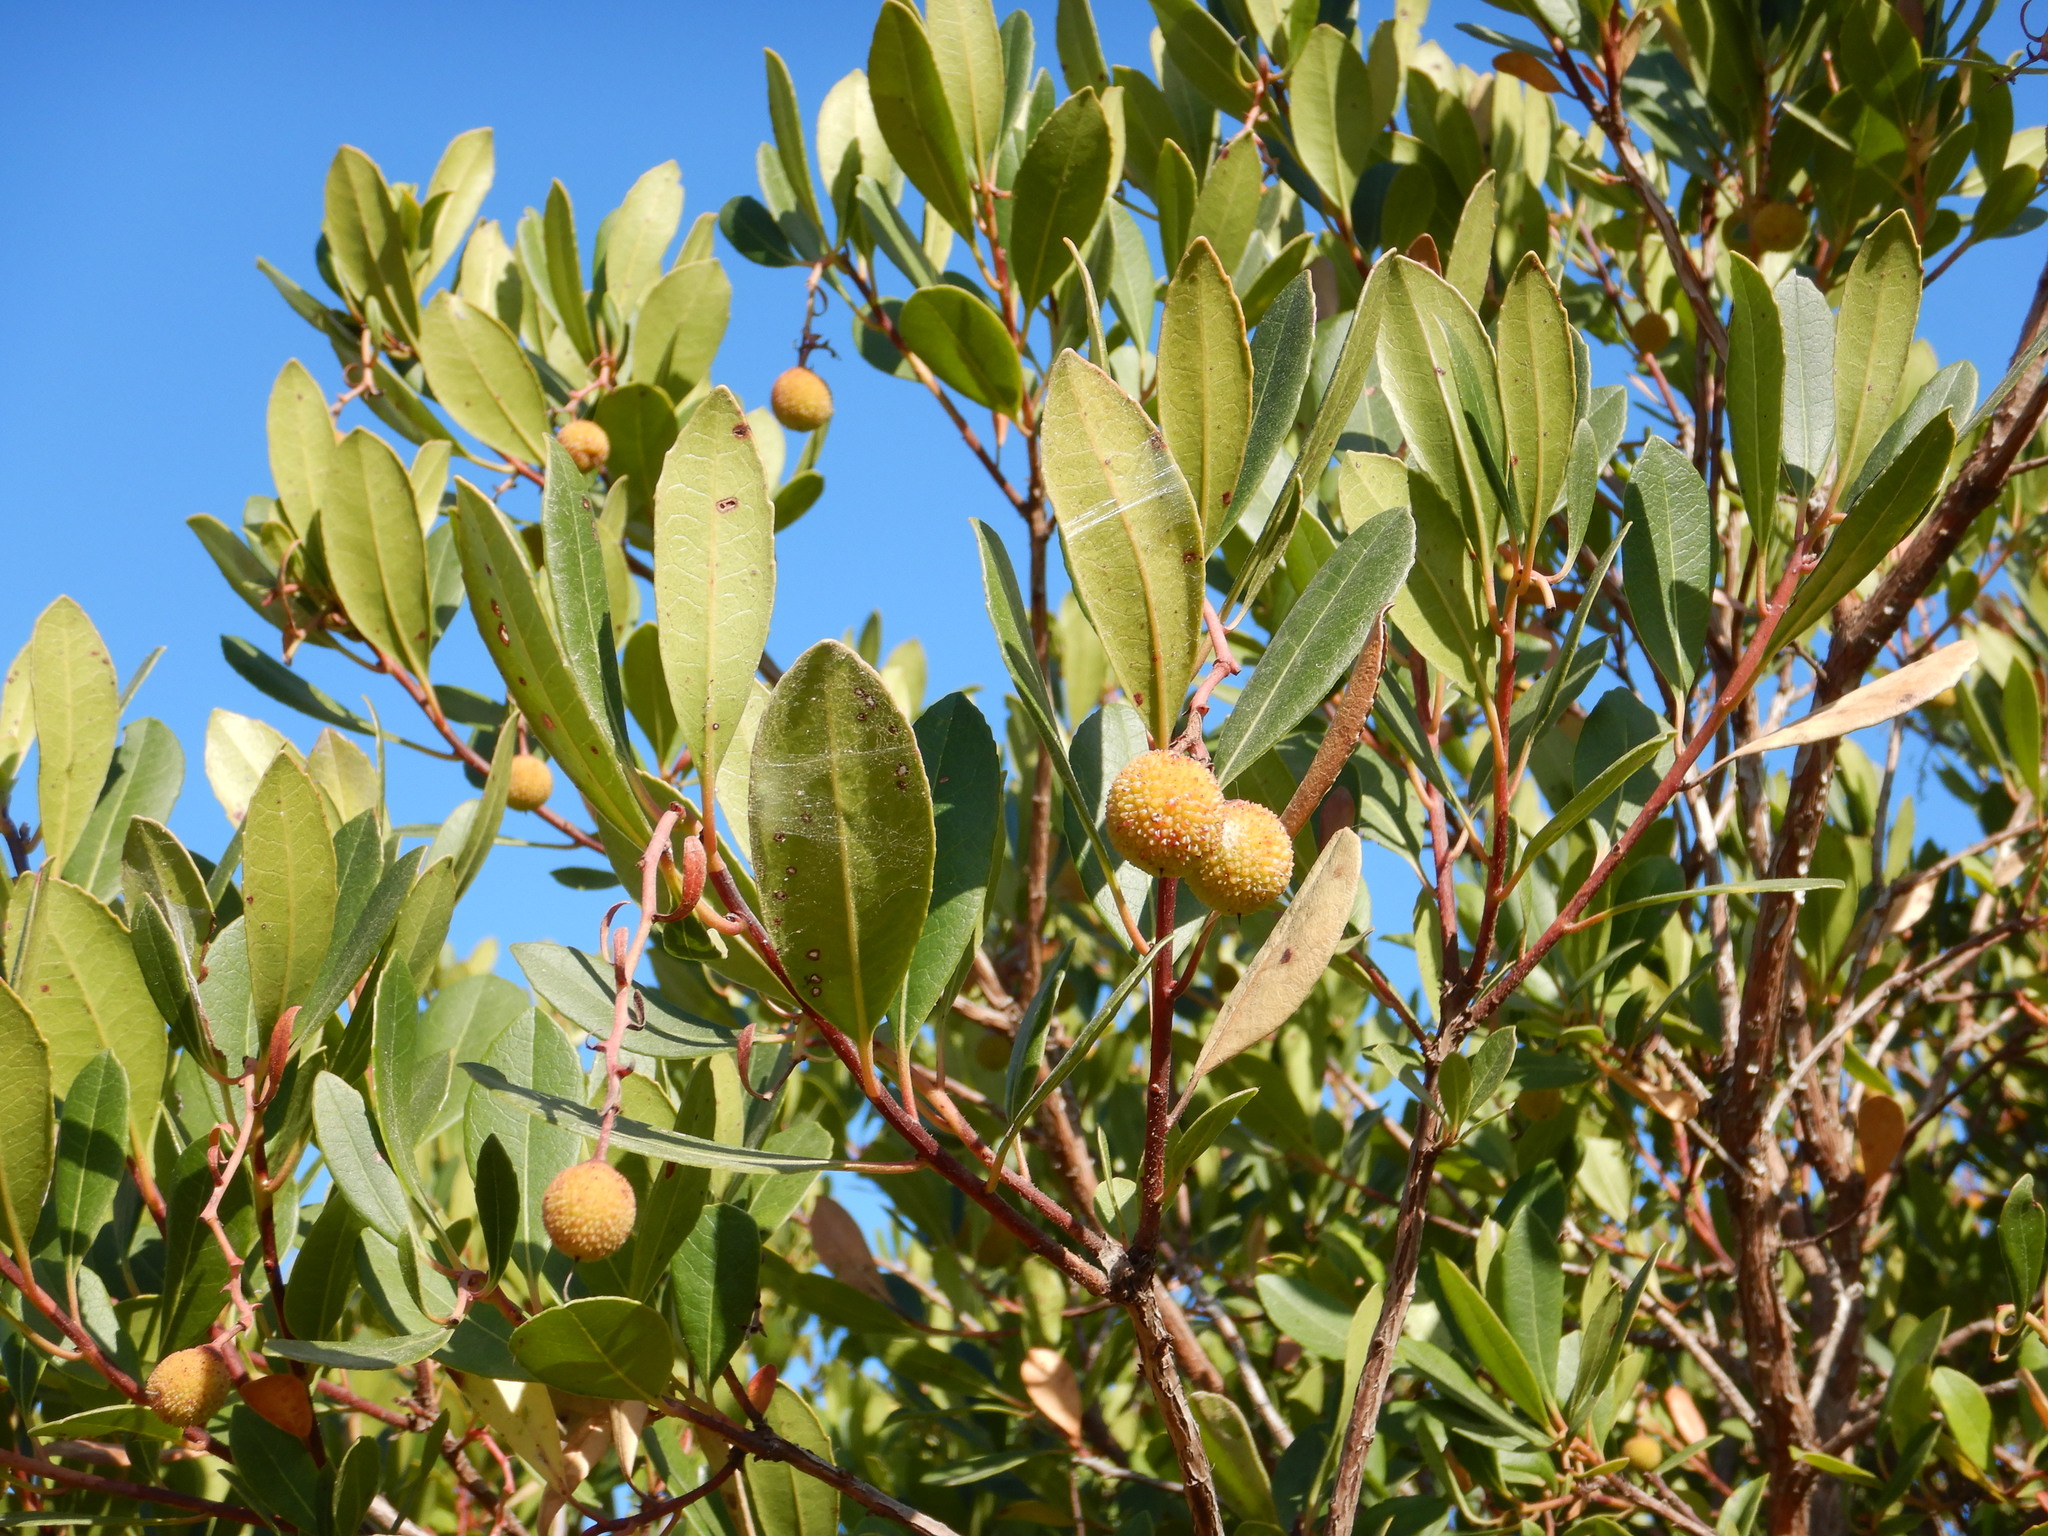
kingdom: Plantae
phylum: Tracheophyta
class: Magnoliopsida
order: Ericales
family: Ericaceae
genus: Arbutus
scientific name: Arbutus unedo
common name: Strawberry-tree
